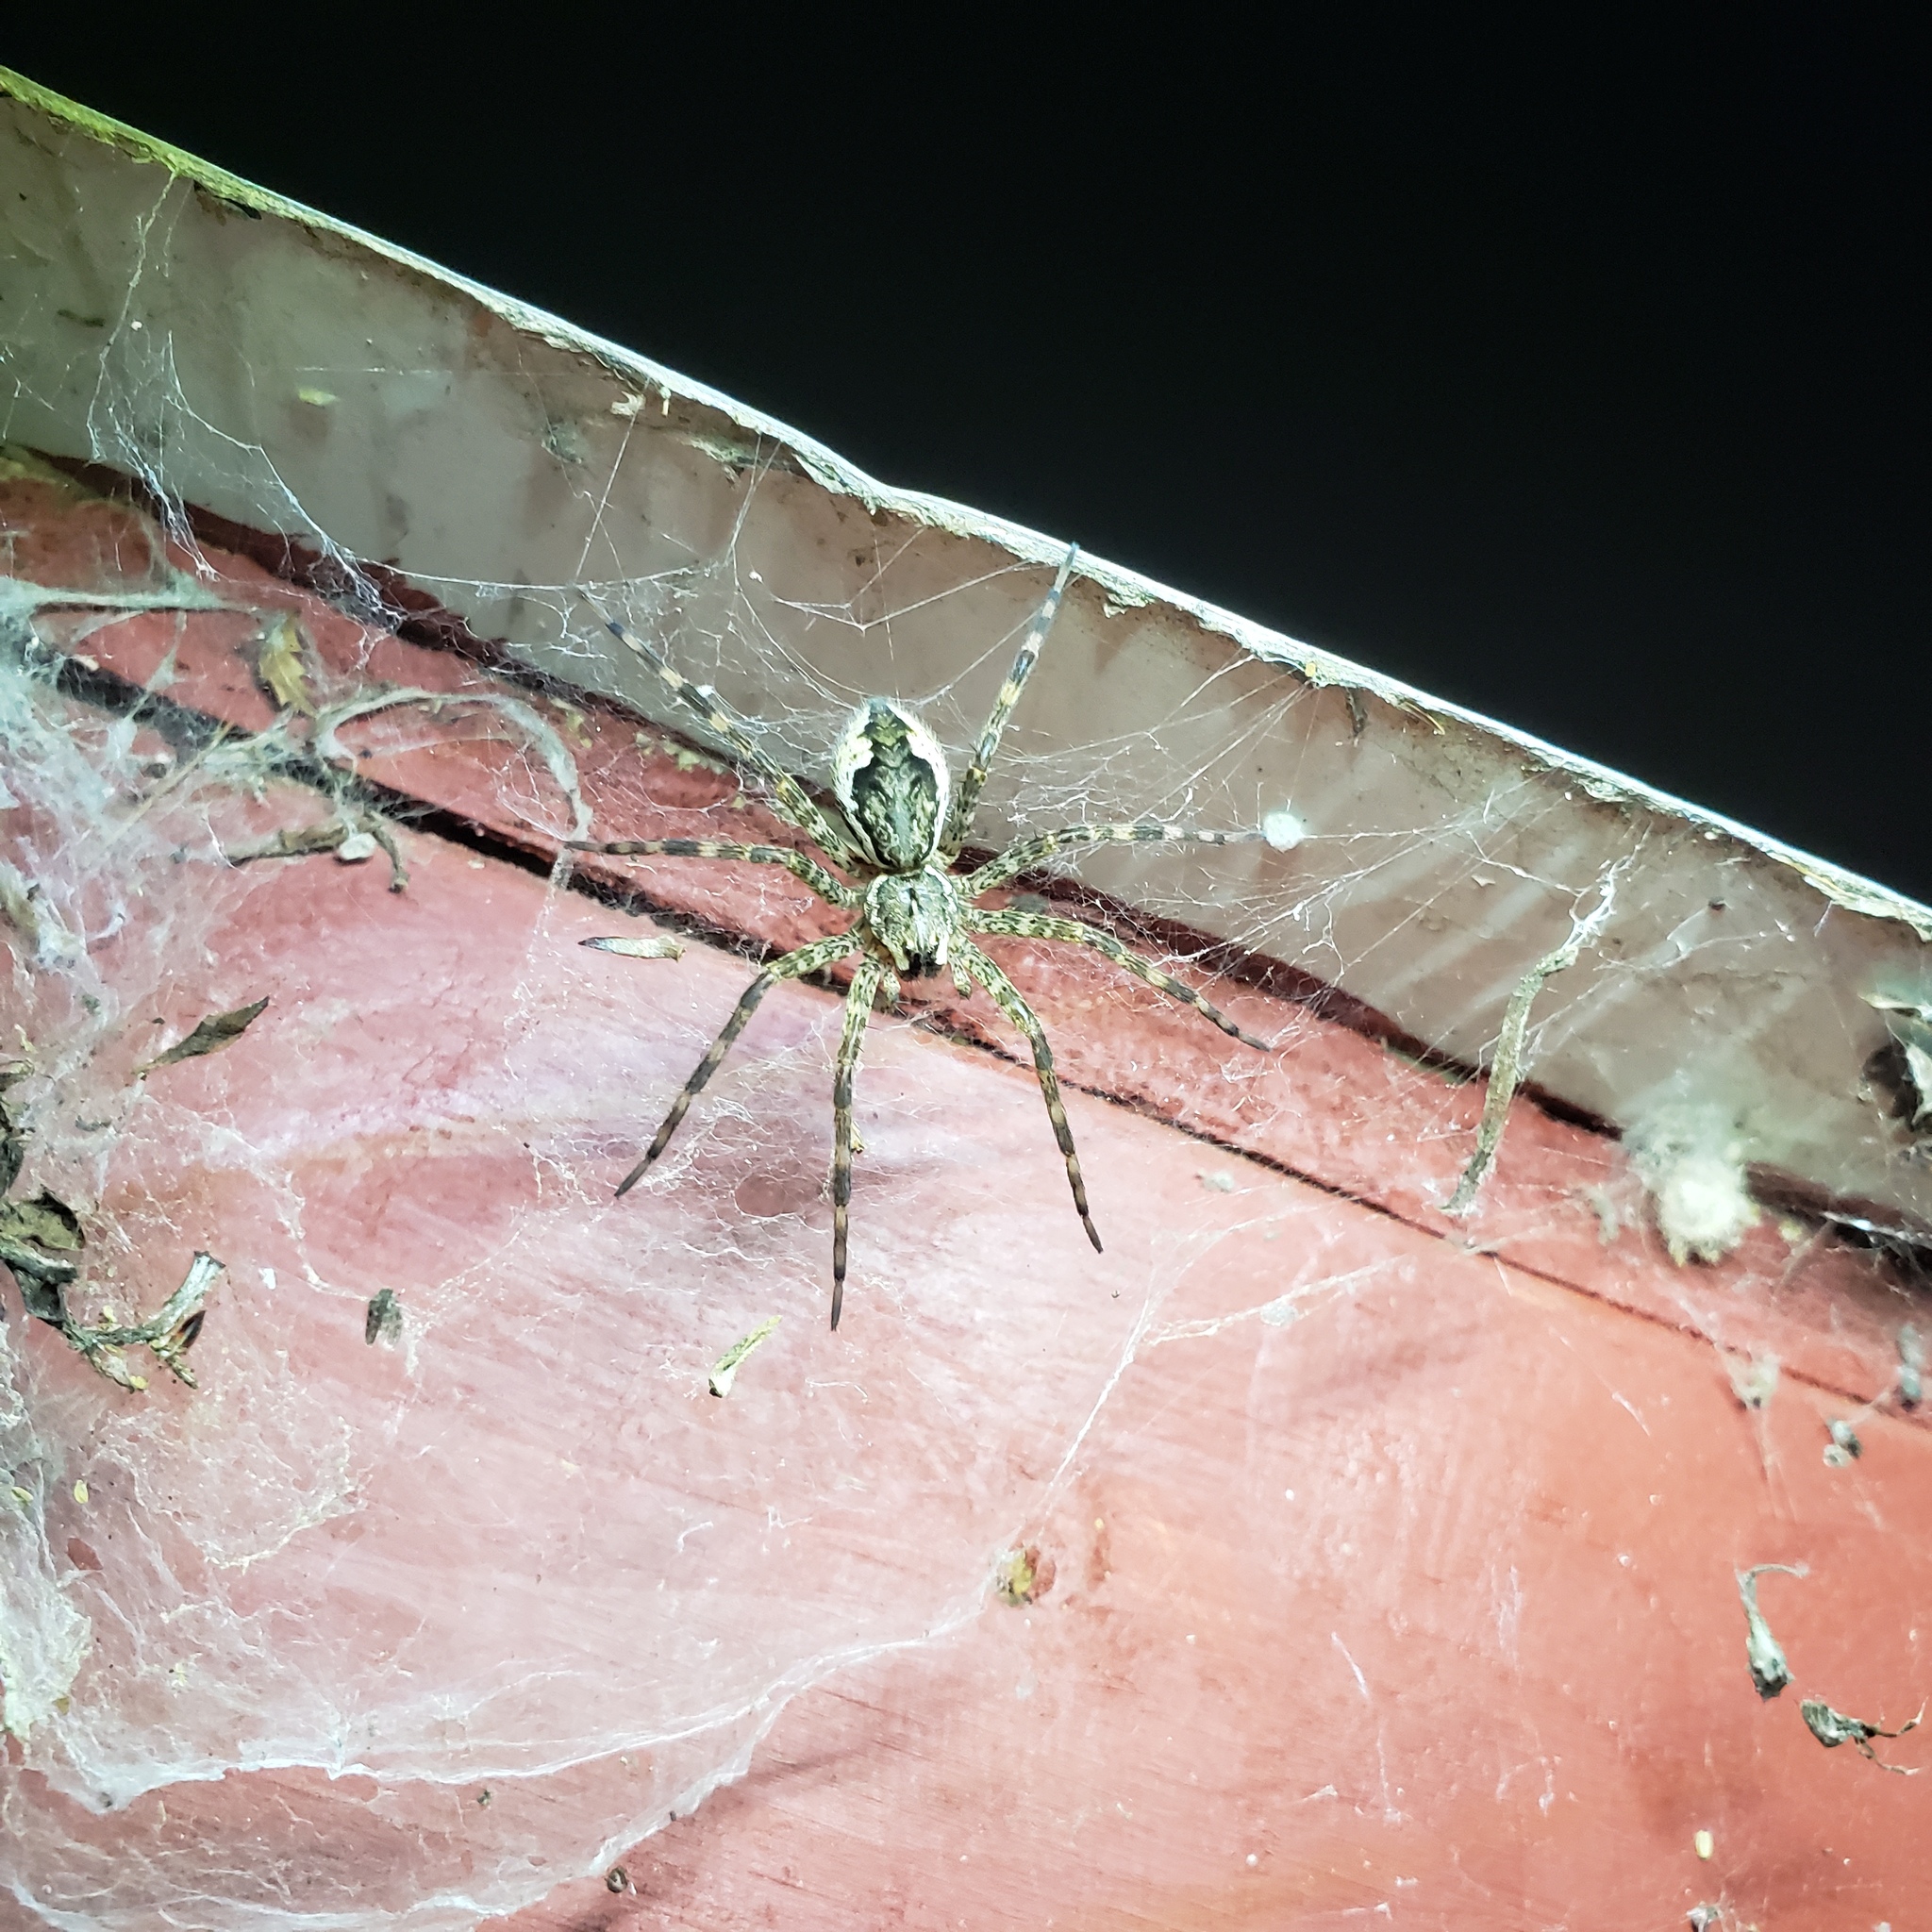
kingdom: Animalia
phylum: Arthropoda
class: Arachnida
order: Araneae
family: Pisauridae
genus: Dolomedes
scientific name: Dolomedes tenebrosus
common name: Dark fishing spider
